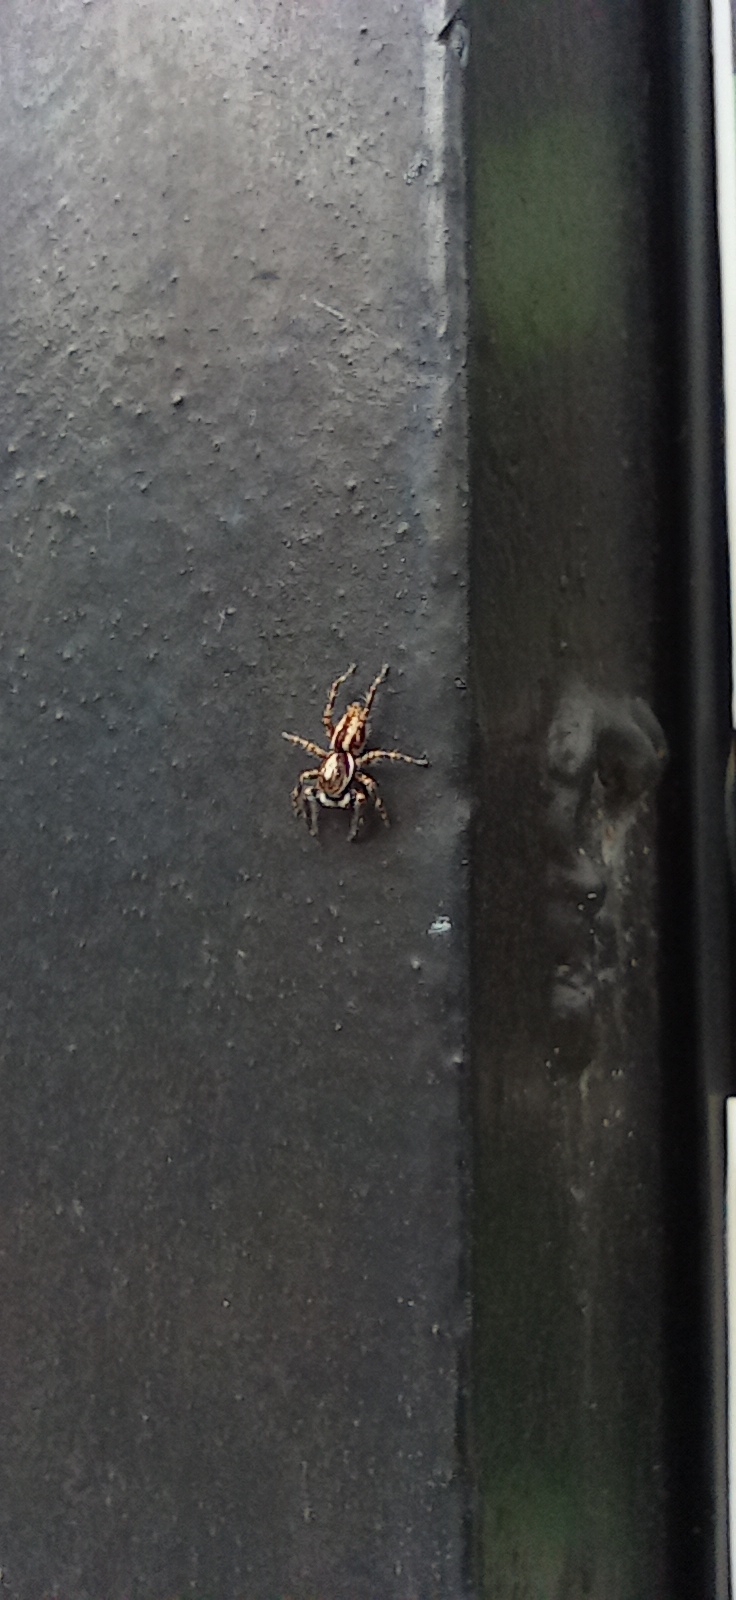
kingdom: Animalia
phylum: Arthropoda
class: Arachnida
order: Araneae
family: Salticidae
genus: Menemerus
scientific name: Menemerus bivittatus
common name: Gray wall jumper
